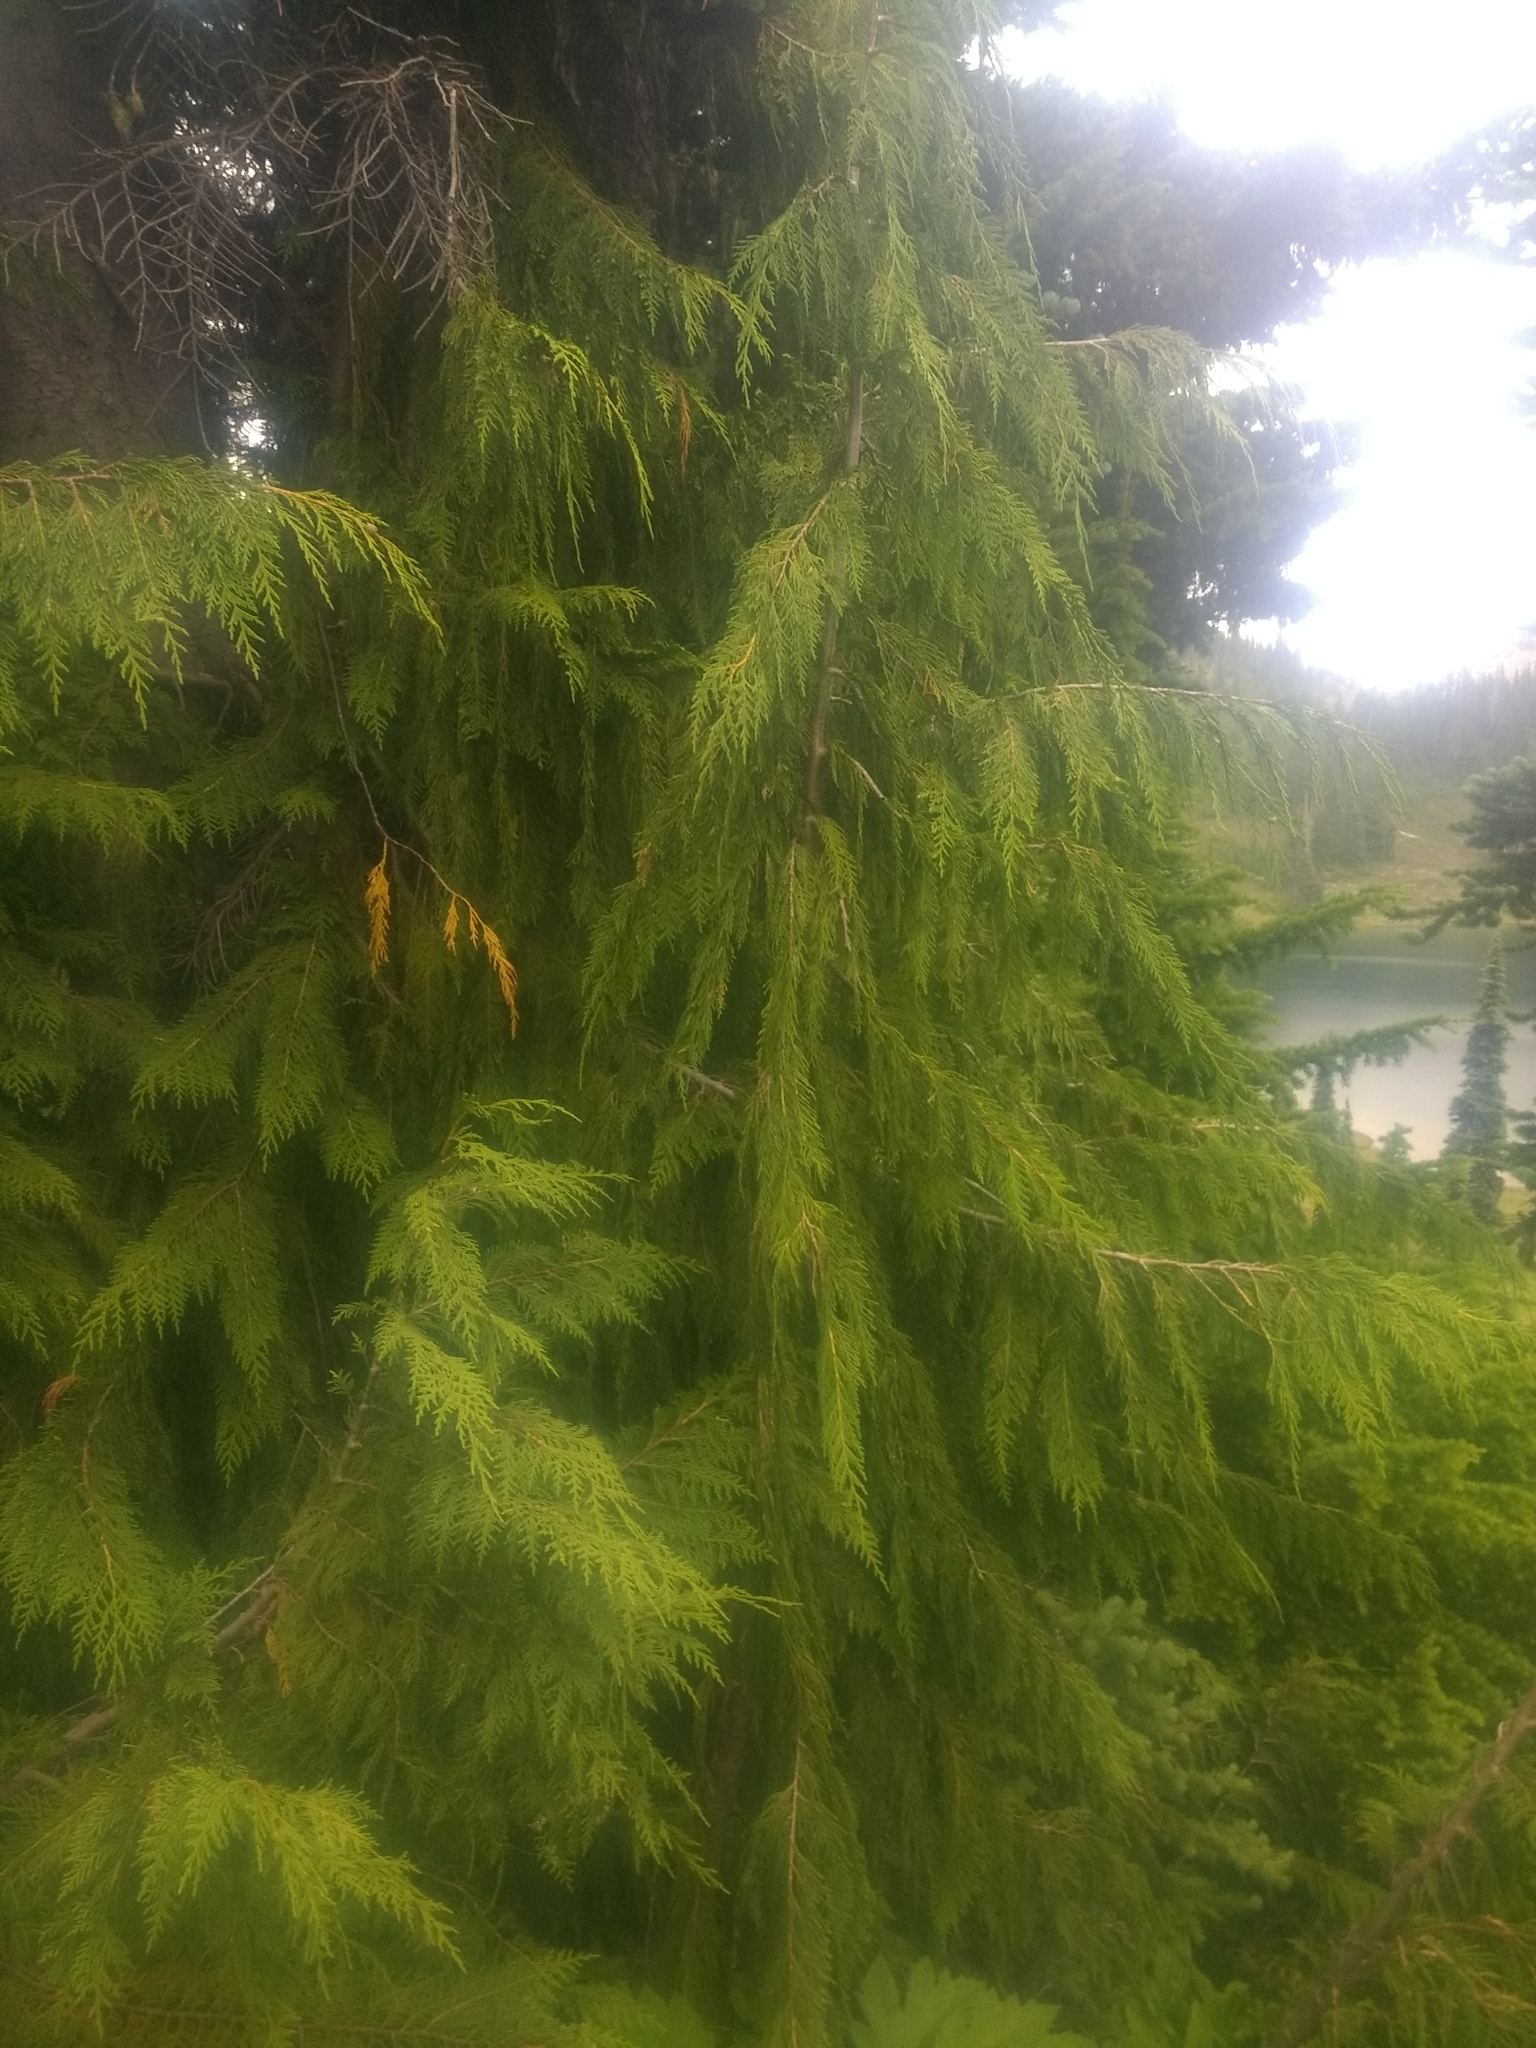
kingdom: Plantae
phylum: Tracheophyta
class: Pinopsida
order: Pinales
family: Cupressaceae
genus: Xanthocyparis
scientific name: Xanthocyparis nootkatensis
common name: Nootka cypress
